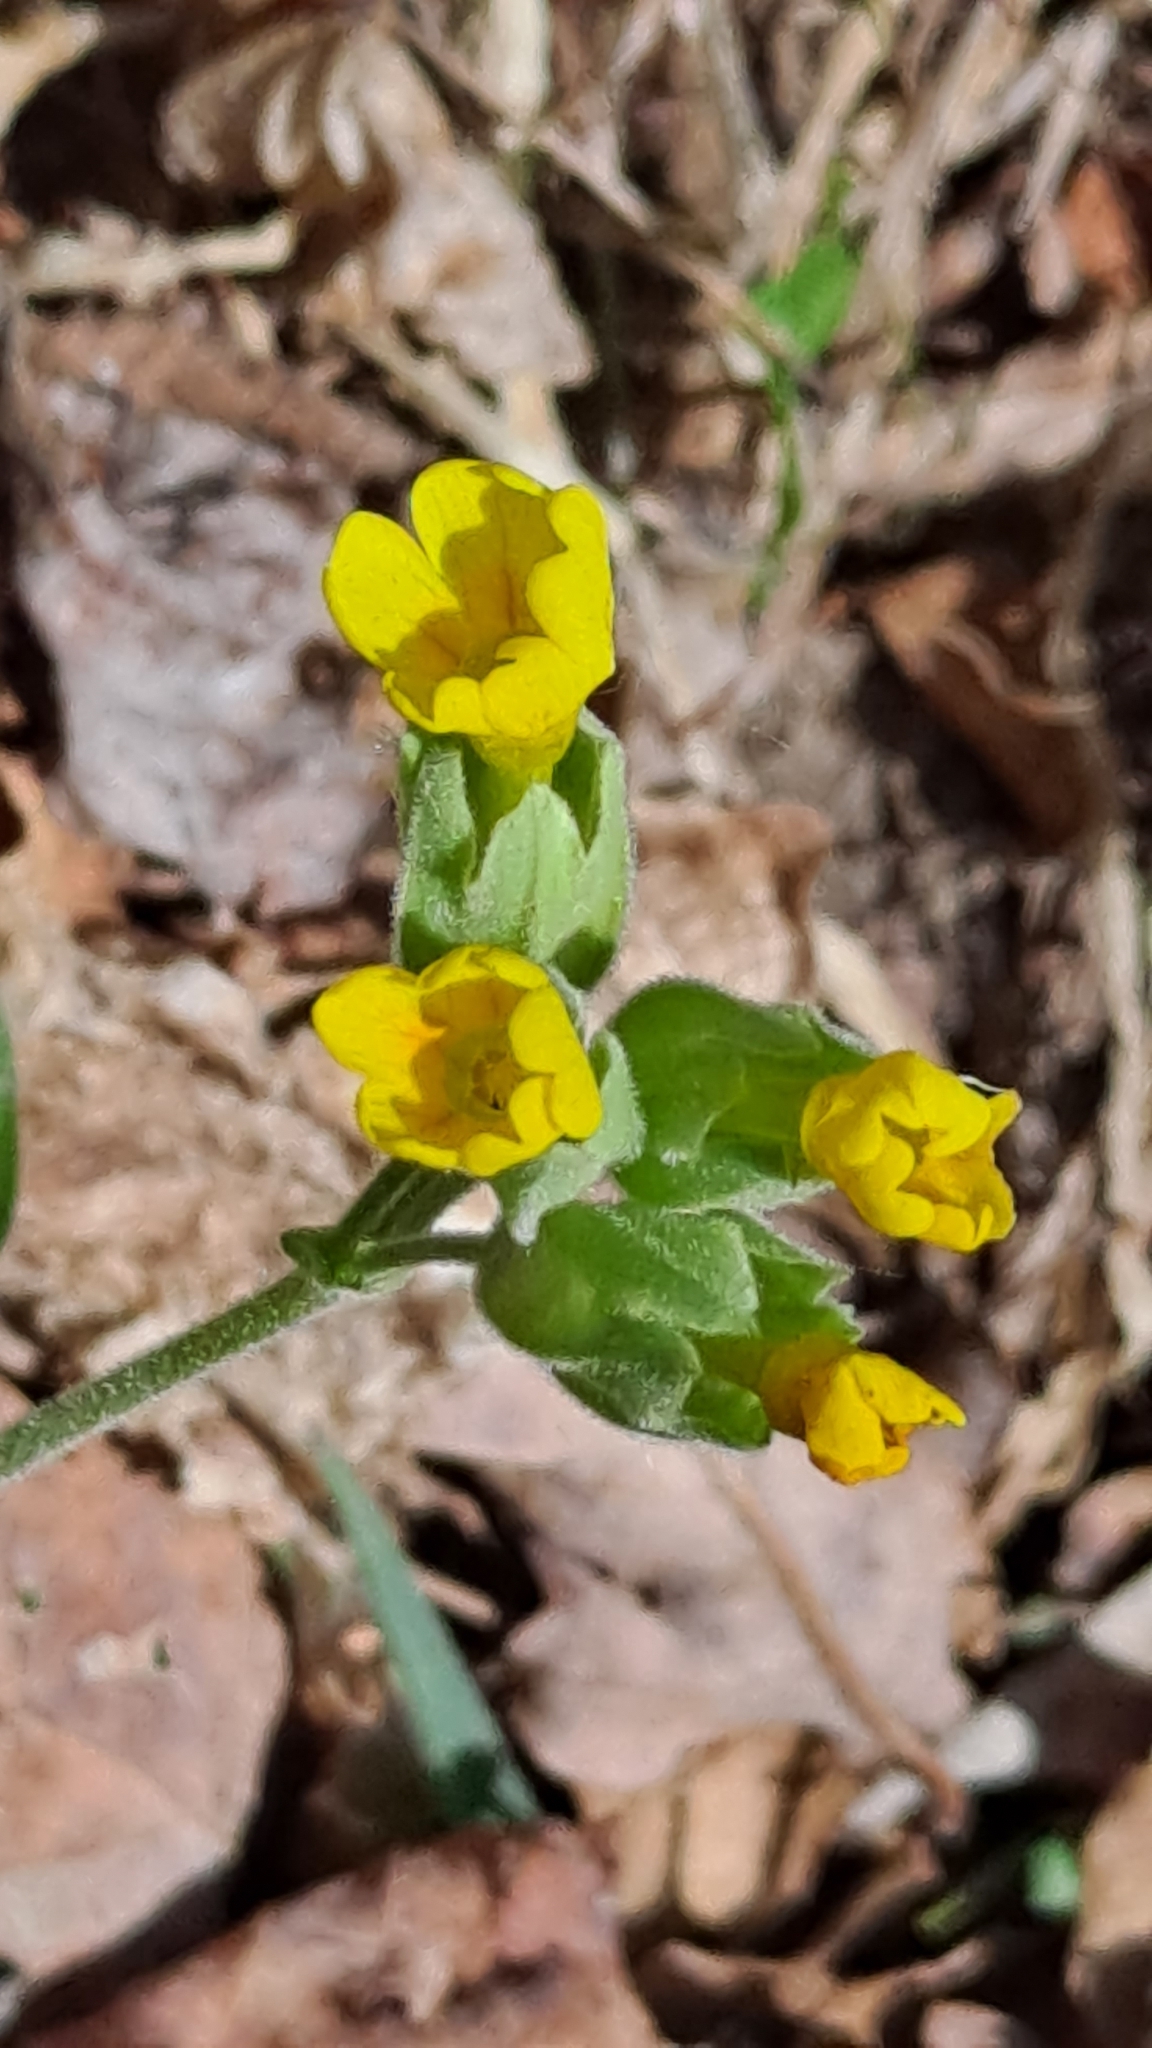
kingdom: Plantae
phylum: Tracheophyta
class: Magnoliopsida
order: Ericales
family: Primulaceae
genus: Primula
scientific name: Primula veris
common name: Cowslip
